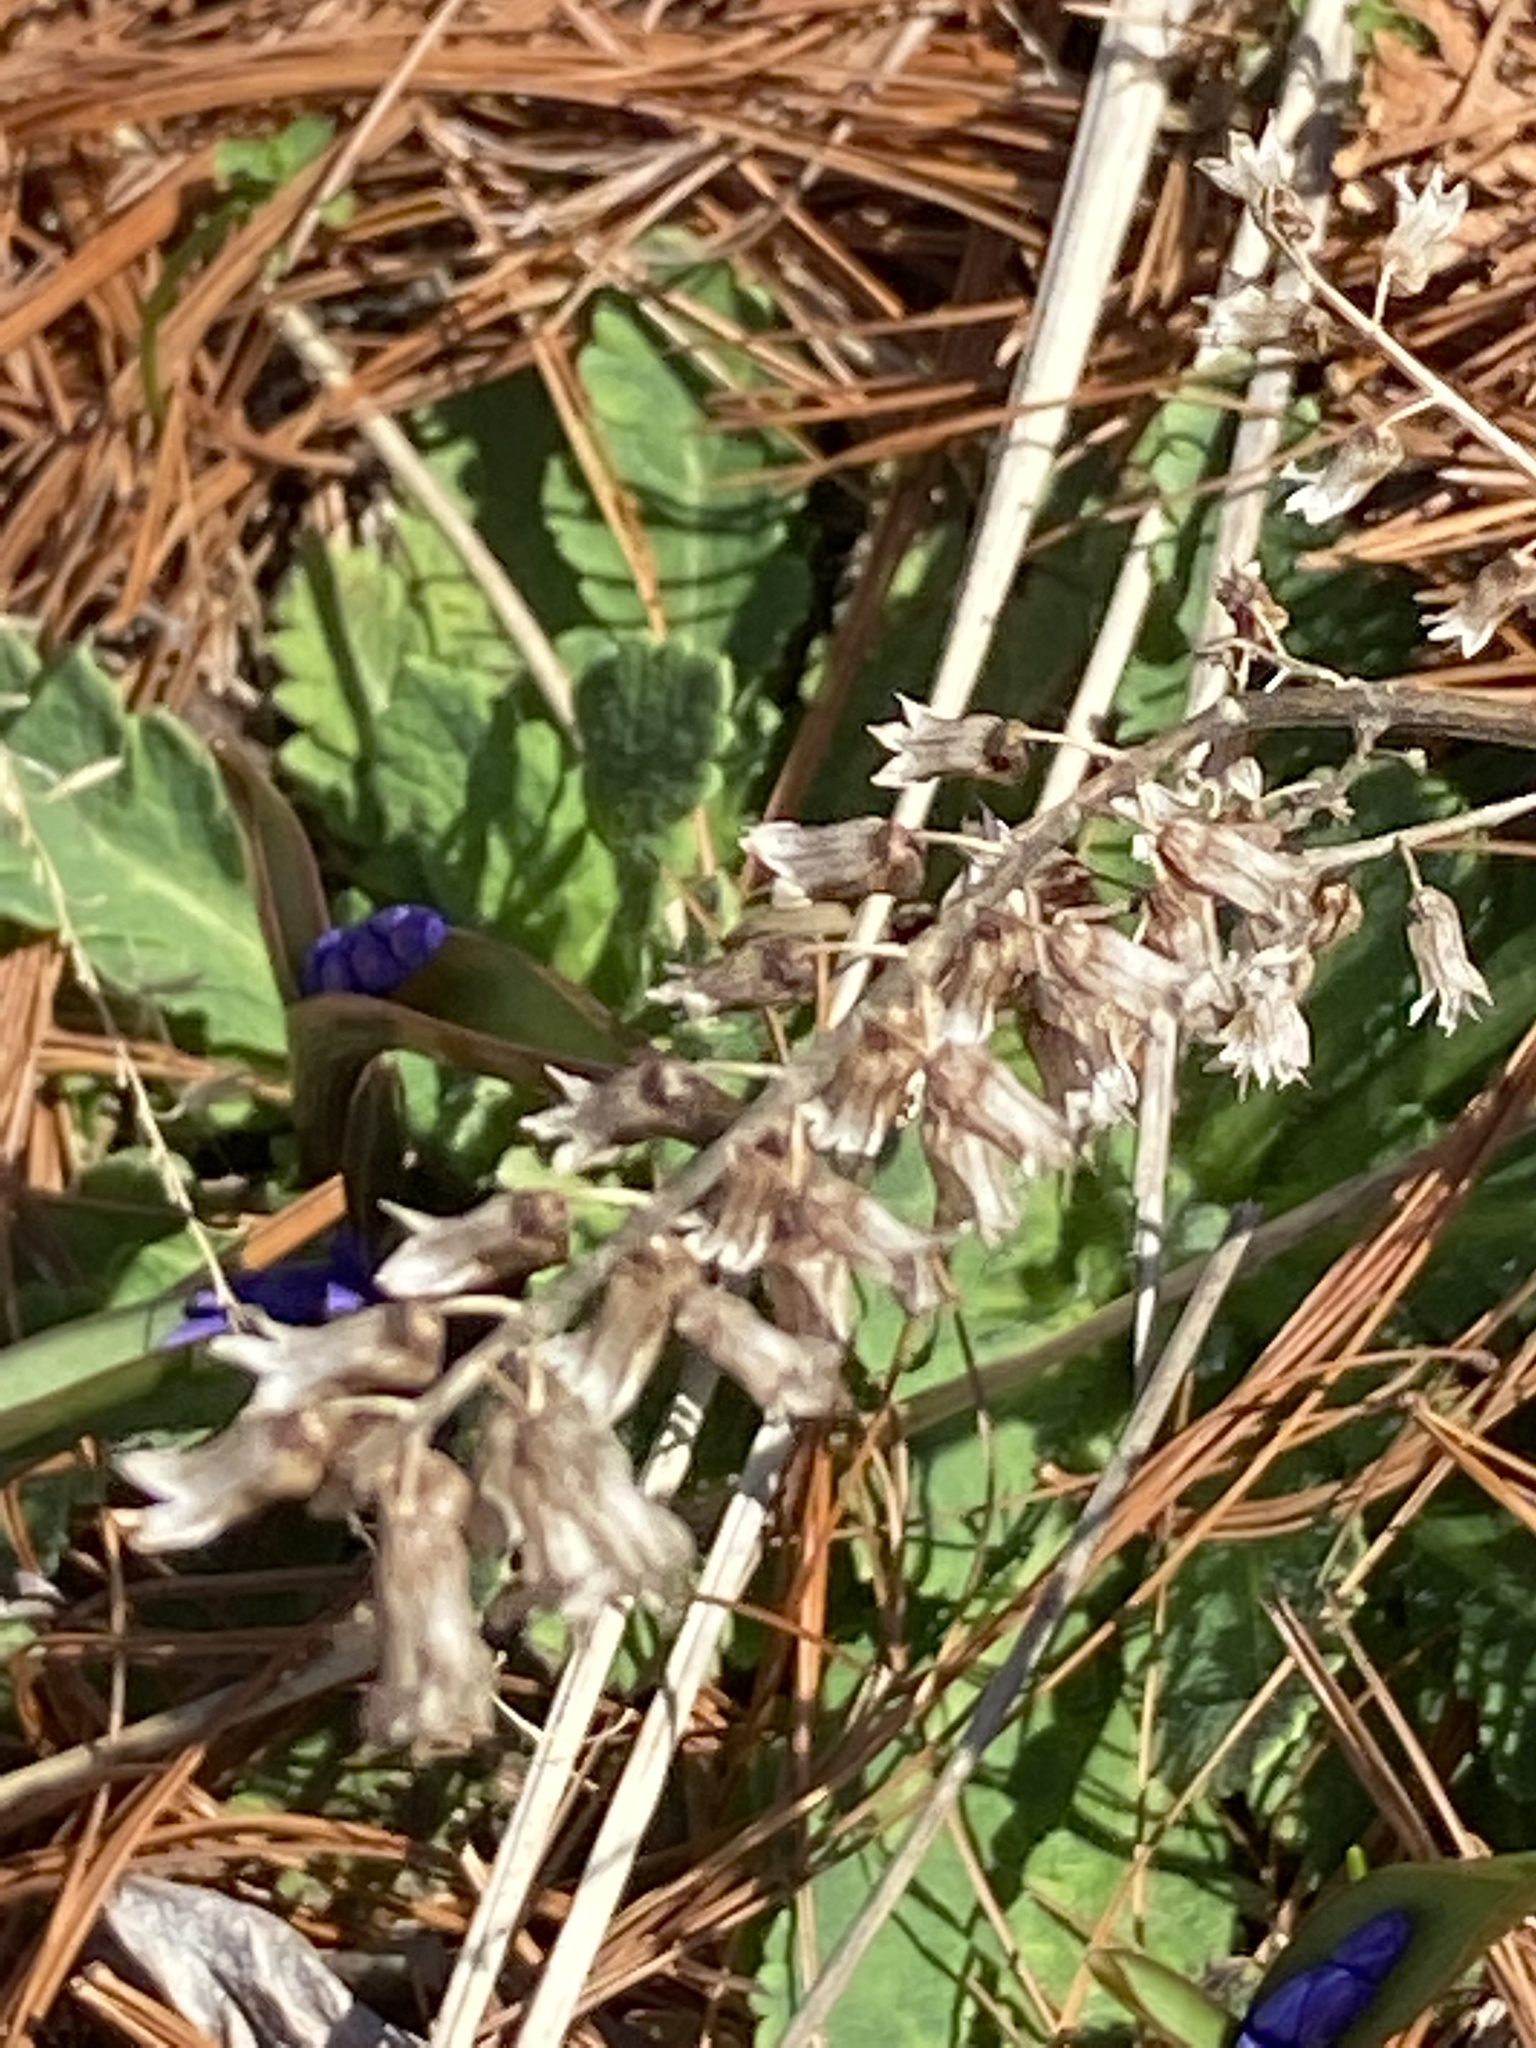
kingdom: Plantae
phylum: Tracheophyta
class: Magnoliopsida
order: Lamiales
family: Lamiaceae
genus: Perilla
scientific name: Perilla frutescens
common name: Perilla
